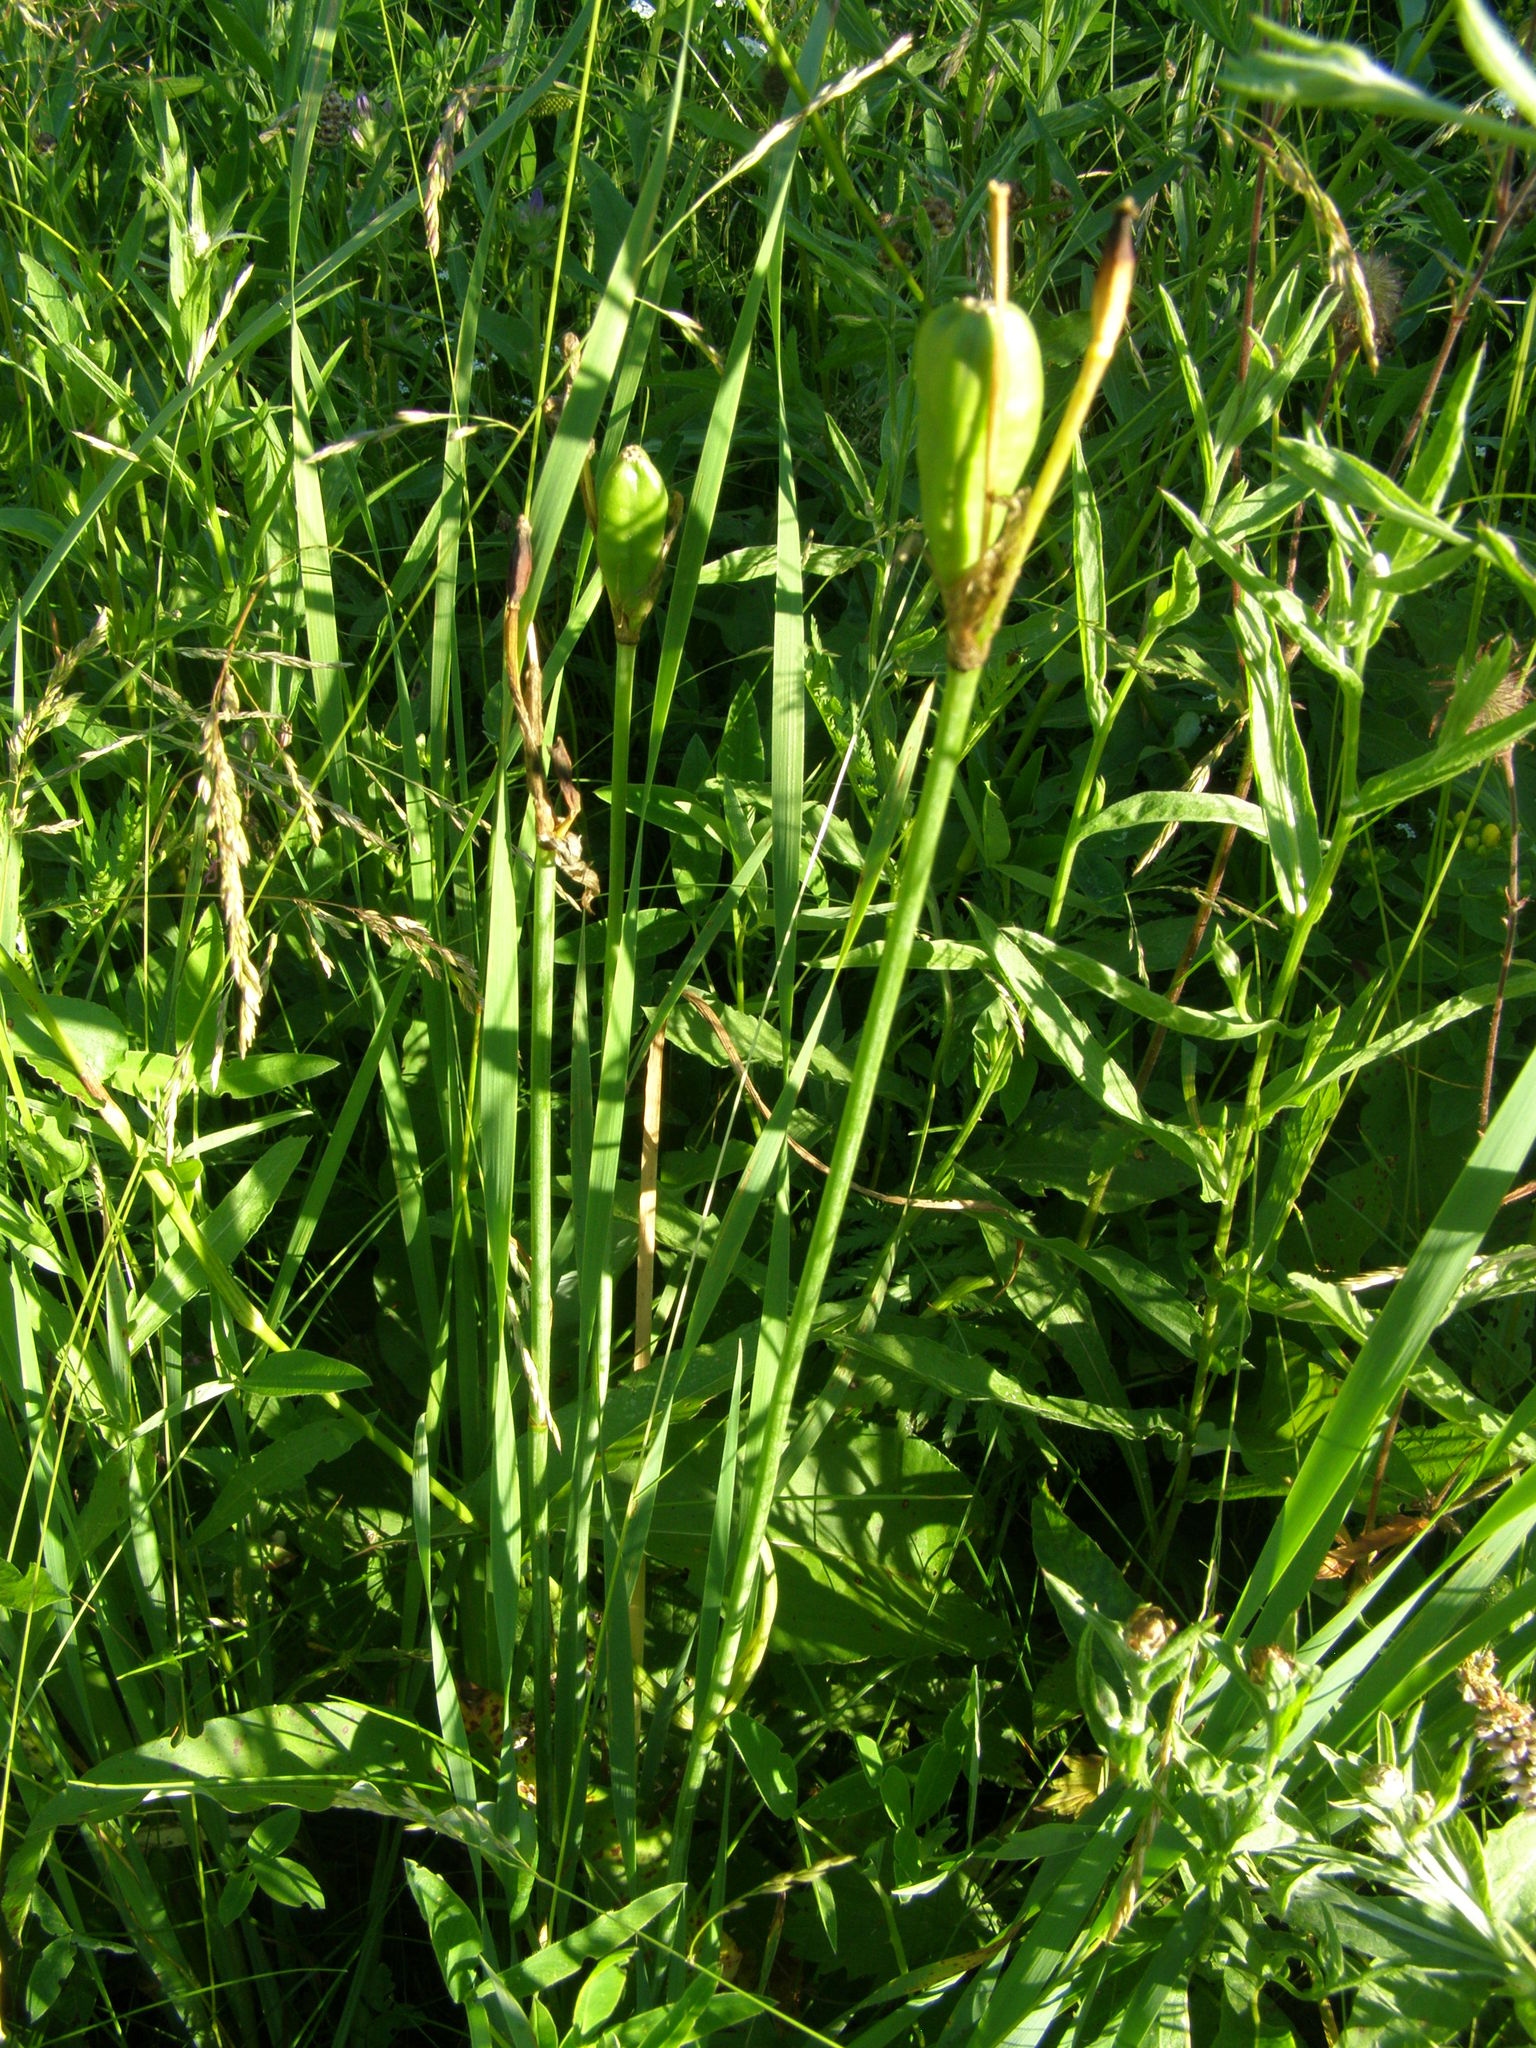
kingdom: Plantae
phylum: Tracheophyta
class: Liliopsida
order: Asparagales
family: Iridaceae
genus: Iris
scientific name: Iris sibirica
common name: Siberian iris
